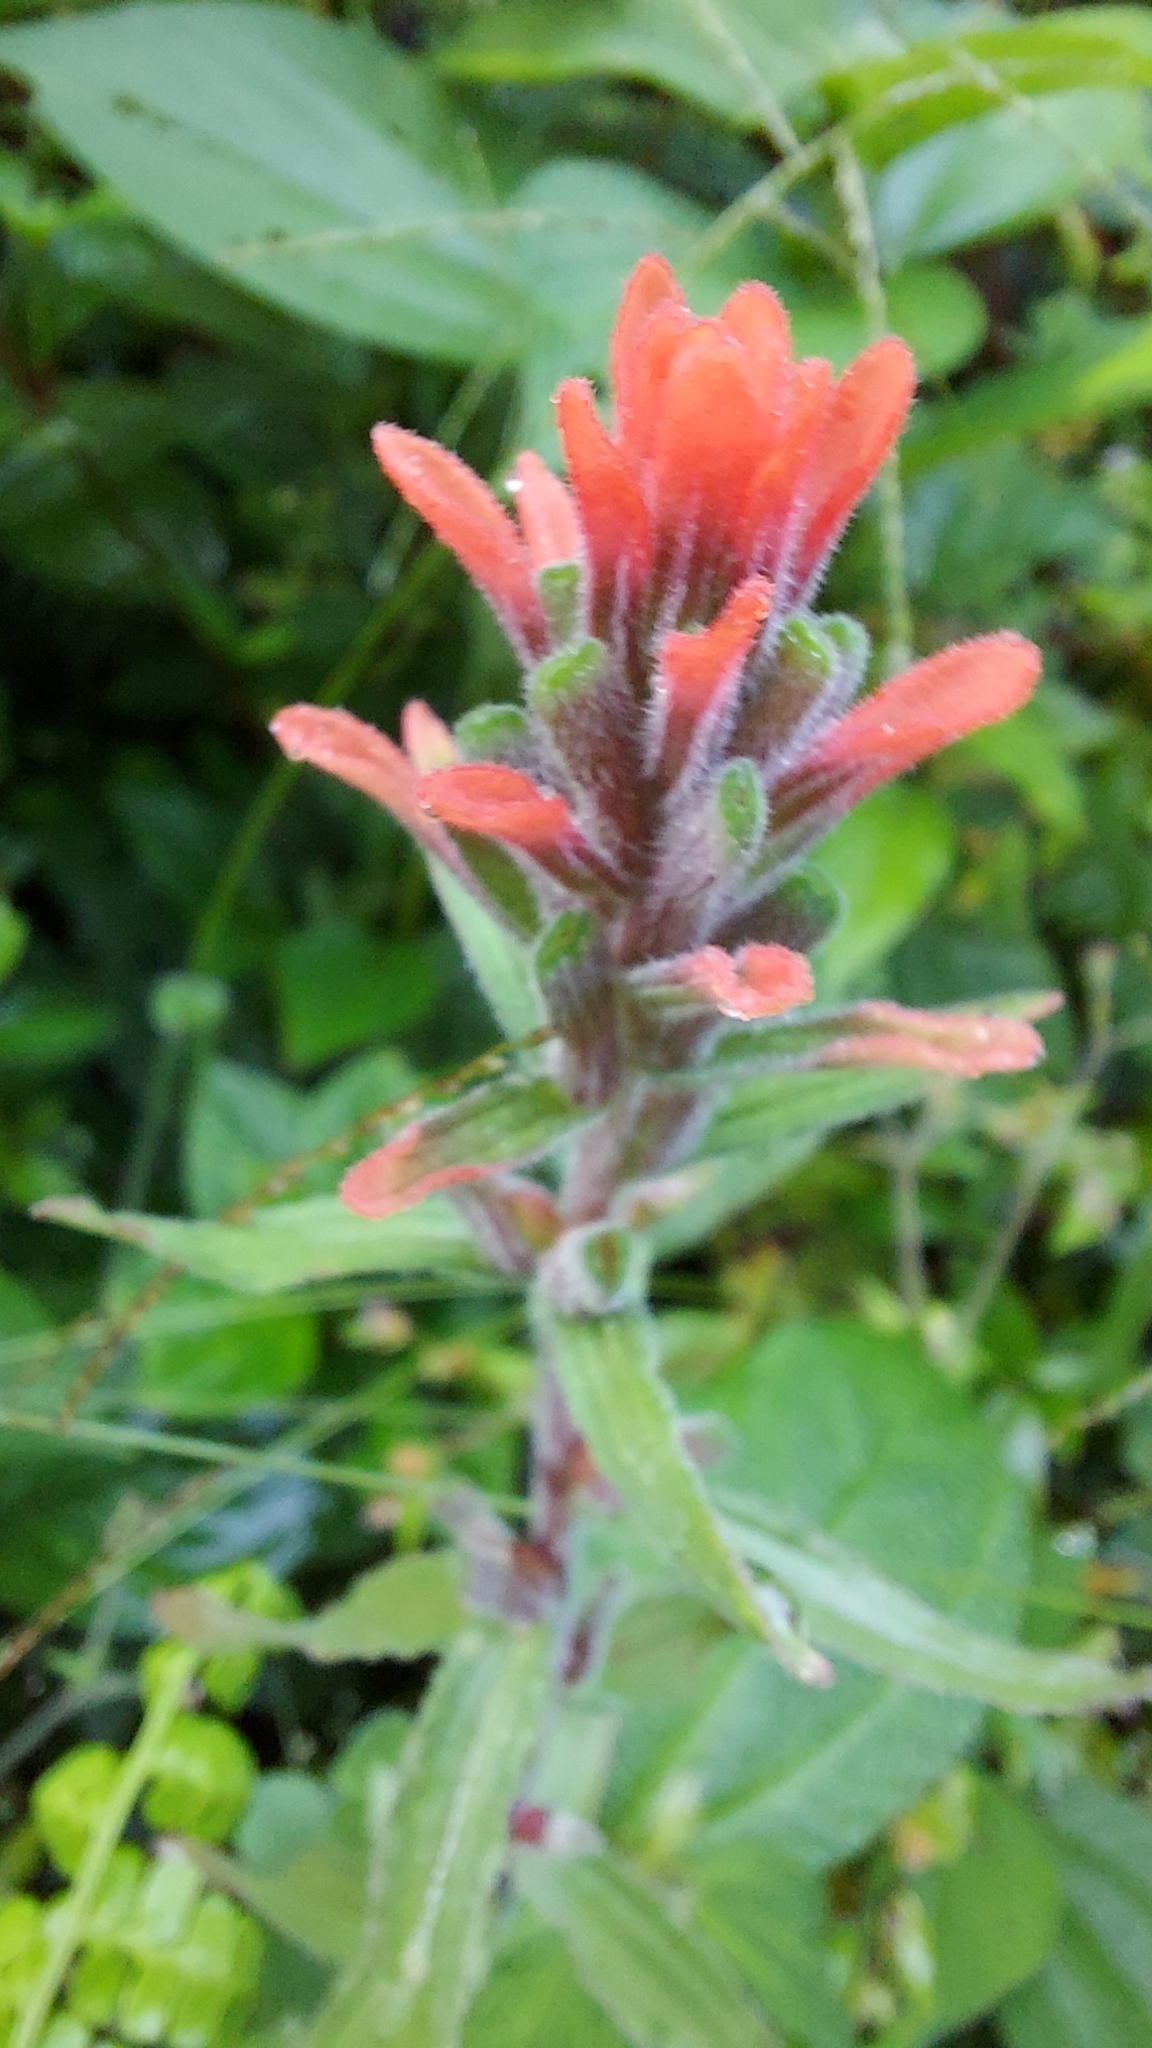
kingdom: Plantae
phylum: Tracheophyta
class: Magnoliopsida
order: Lamiales
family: Orobanchaceae
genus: Castilleja
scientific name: Castilleja arvensis
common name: Indian paintbrush
